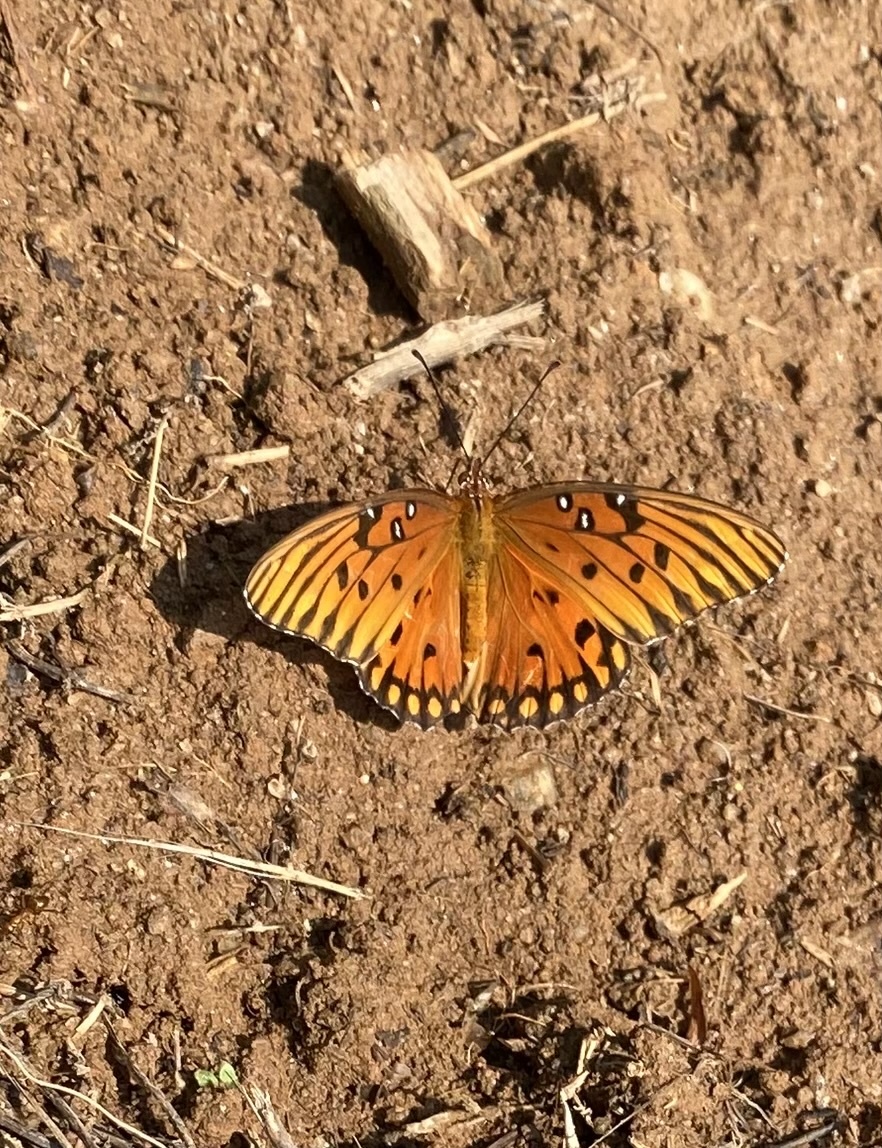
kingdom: Animalia
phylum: Arthropoda
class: Insecta
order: Lepidoptera
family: Nymphalidae
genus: Dione
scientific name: Dione vanillae
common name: Gulf fritillary
